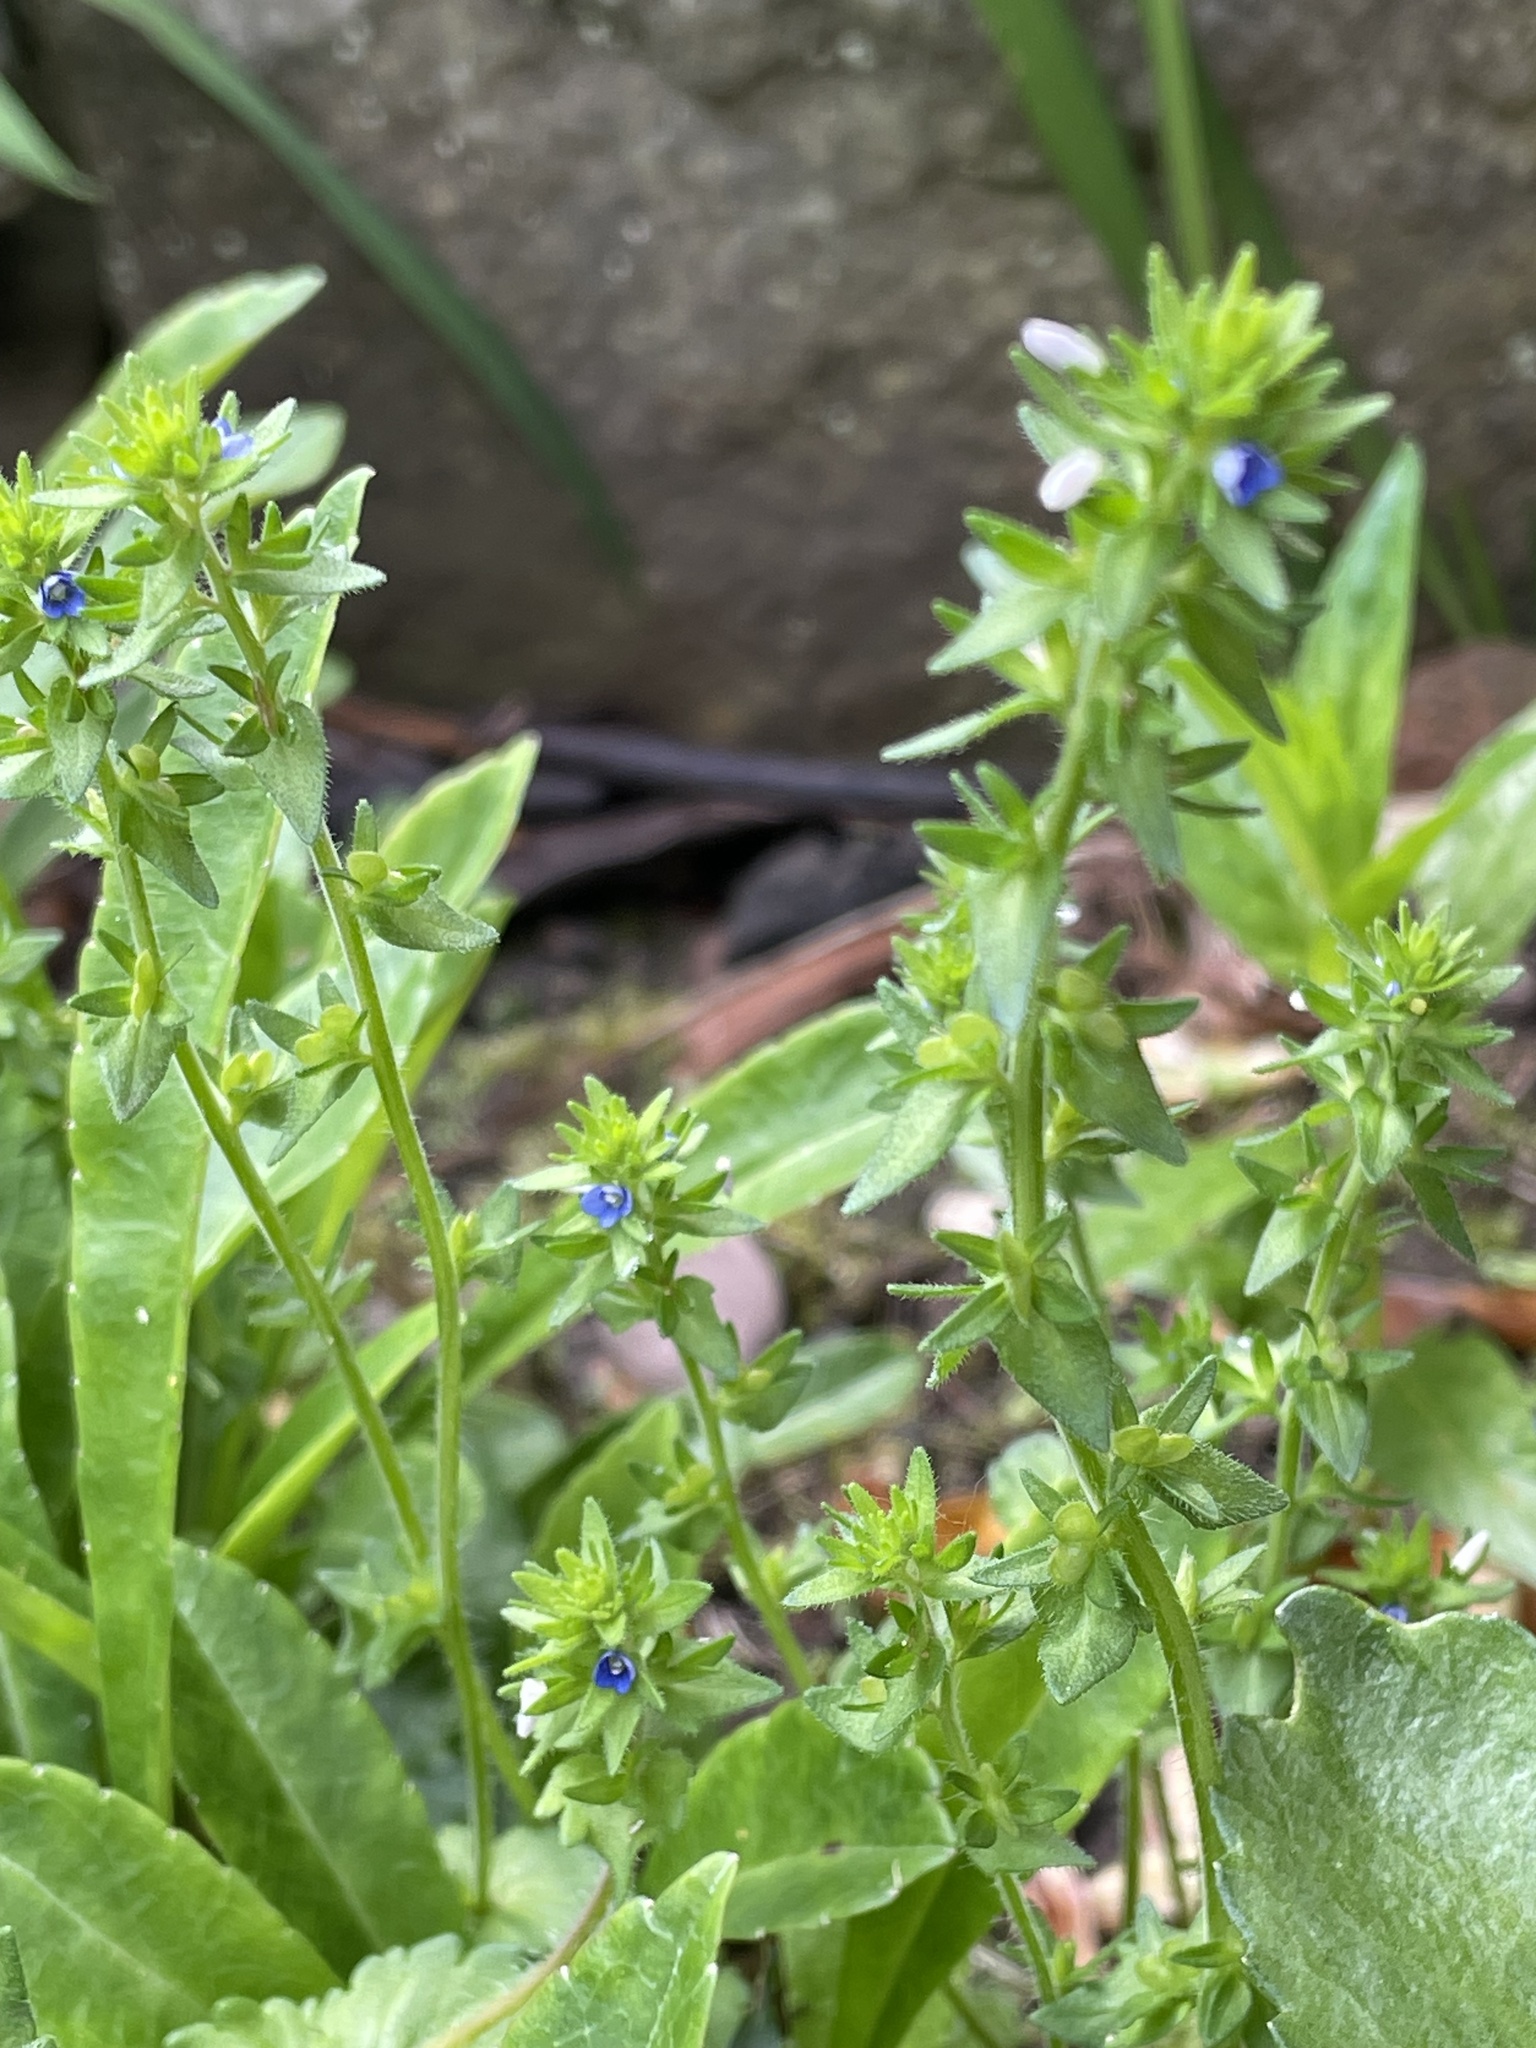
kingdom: Plantae
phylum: Tracheophyta
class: Magnoliopsida
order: Lamiales
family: Plantaginaceae
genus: Veronica
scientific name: Veronica arvensis
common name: Corn speedwell
